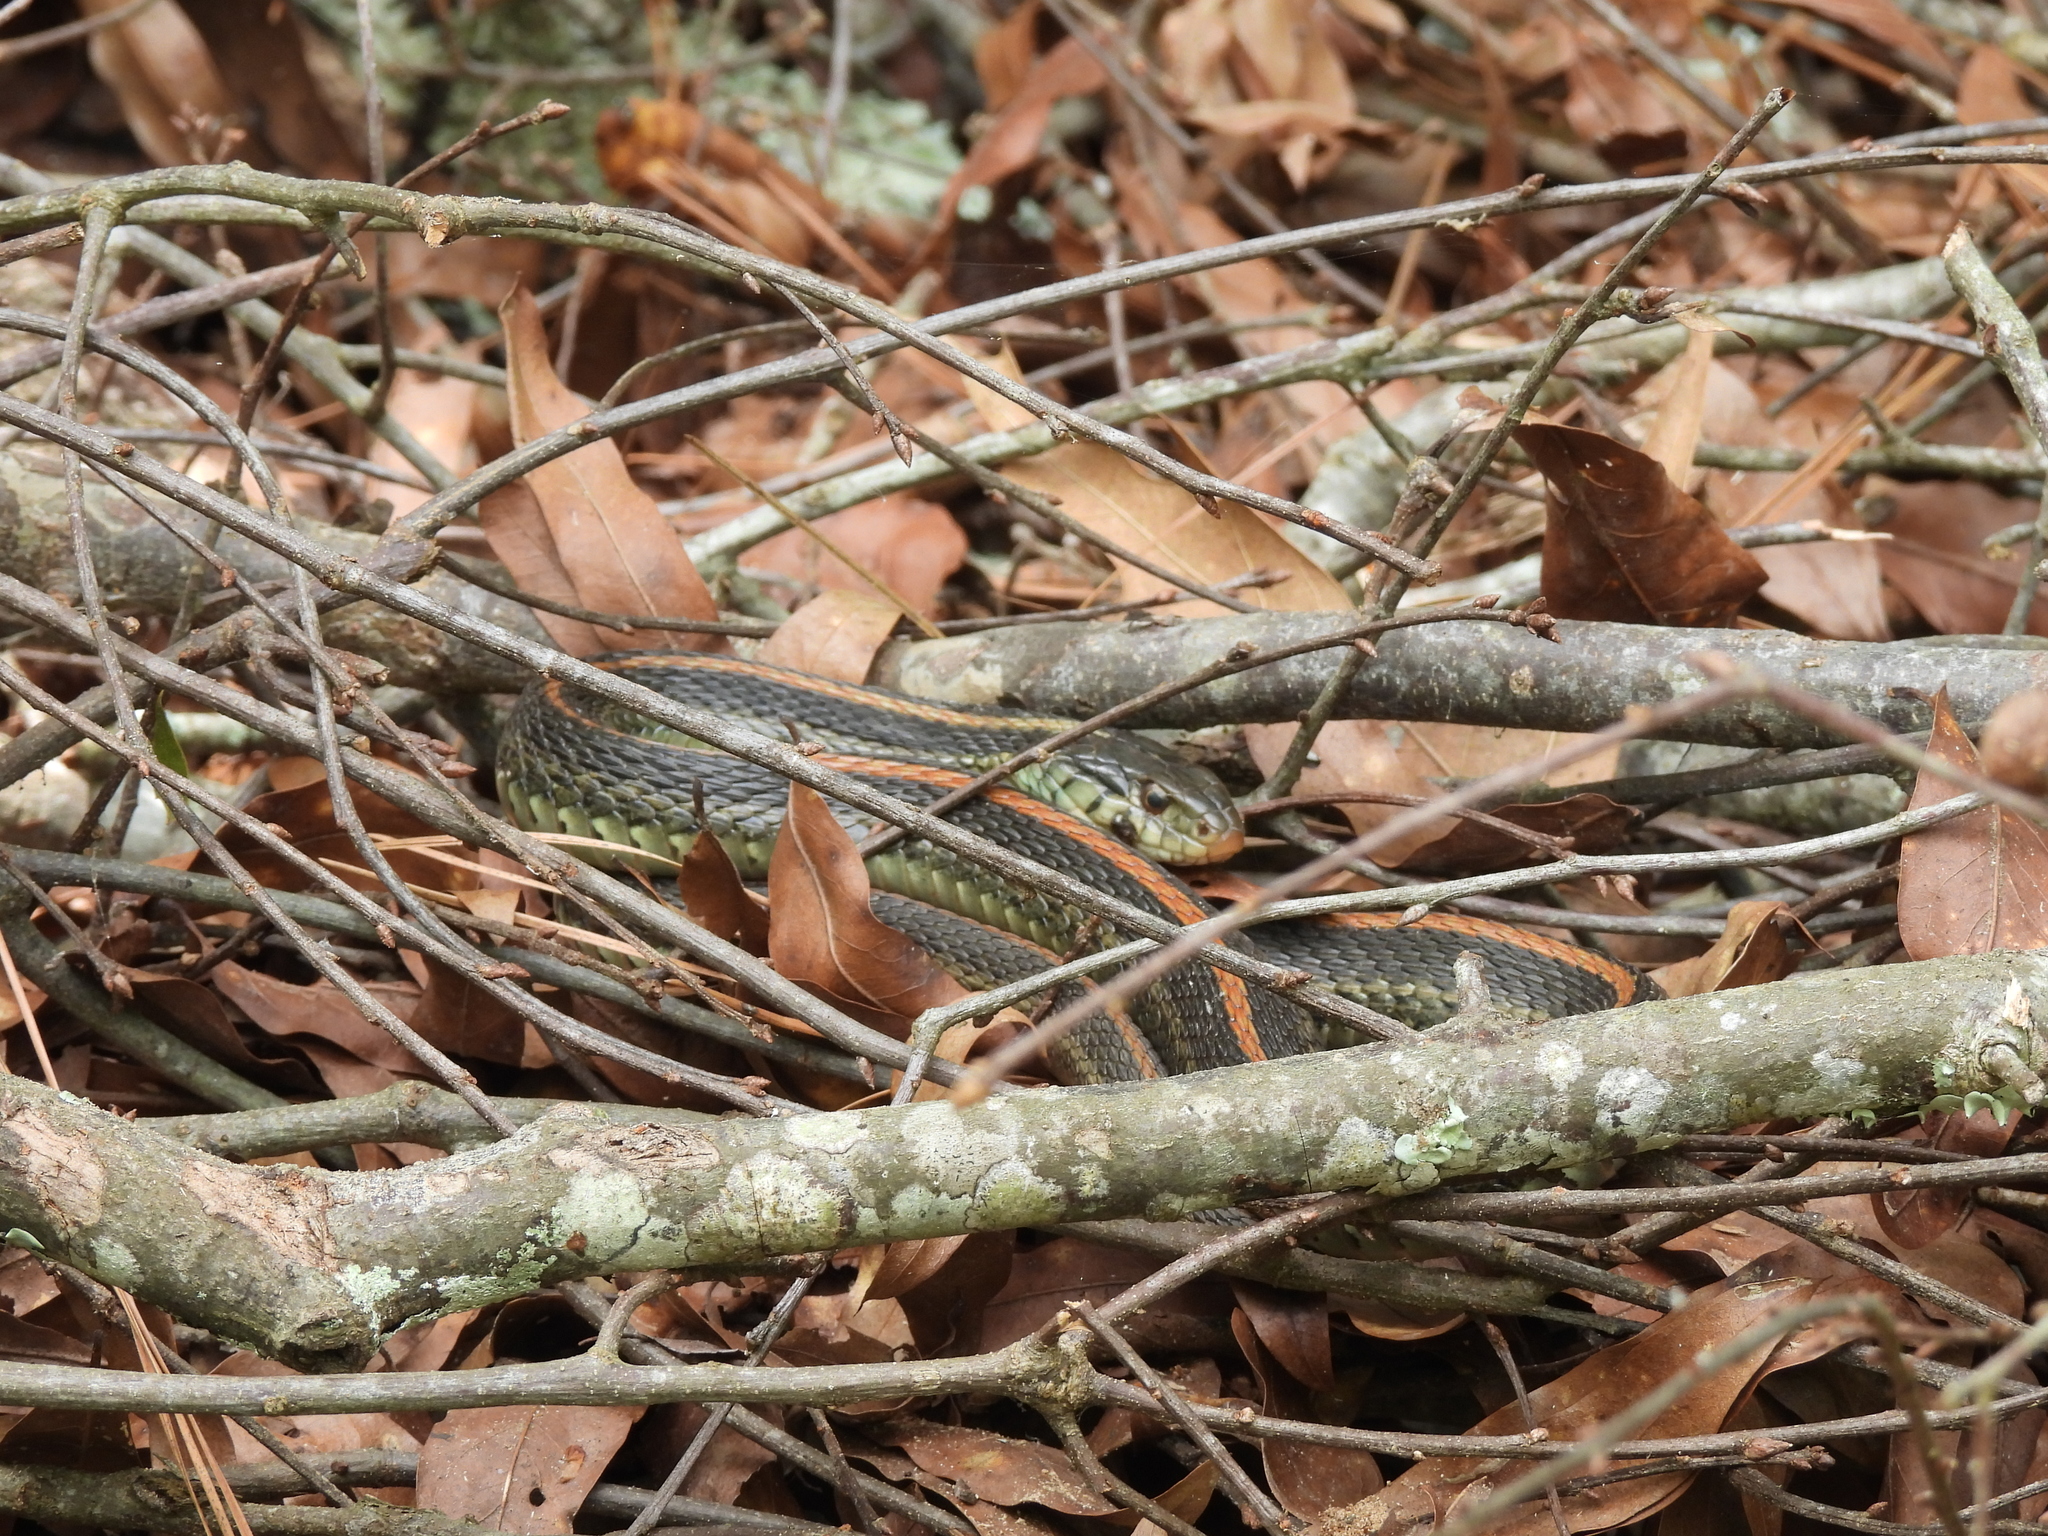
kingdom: Animalia
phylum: Chordata
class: Squamata
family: Colubridae
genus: Thamnophis
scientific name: Thamnophis sirtalis
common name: Common garter snake
